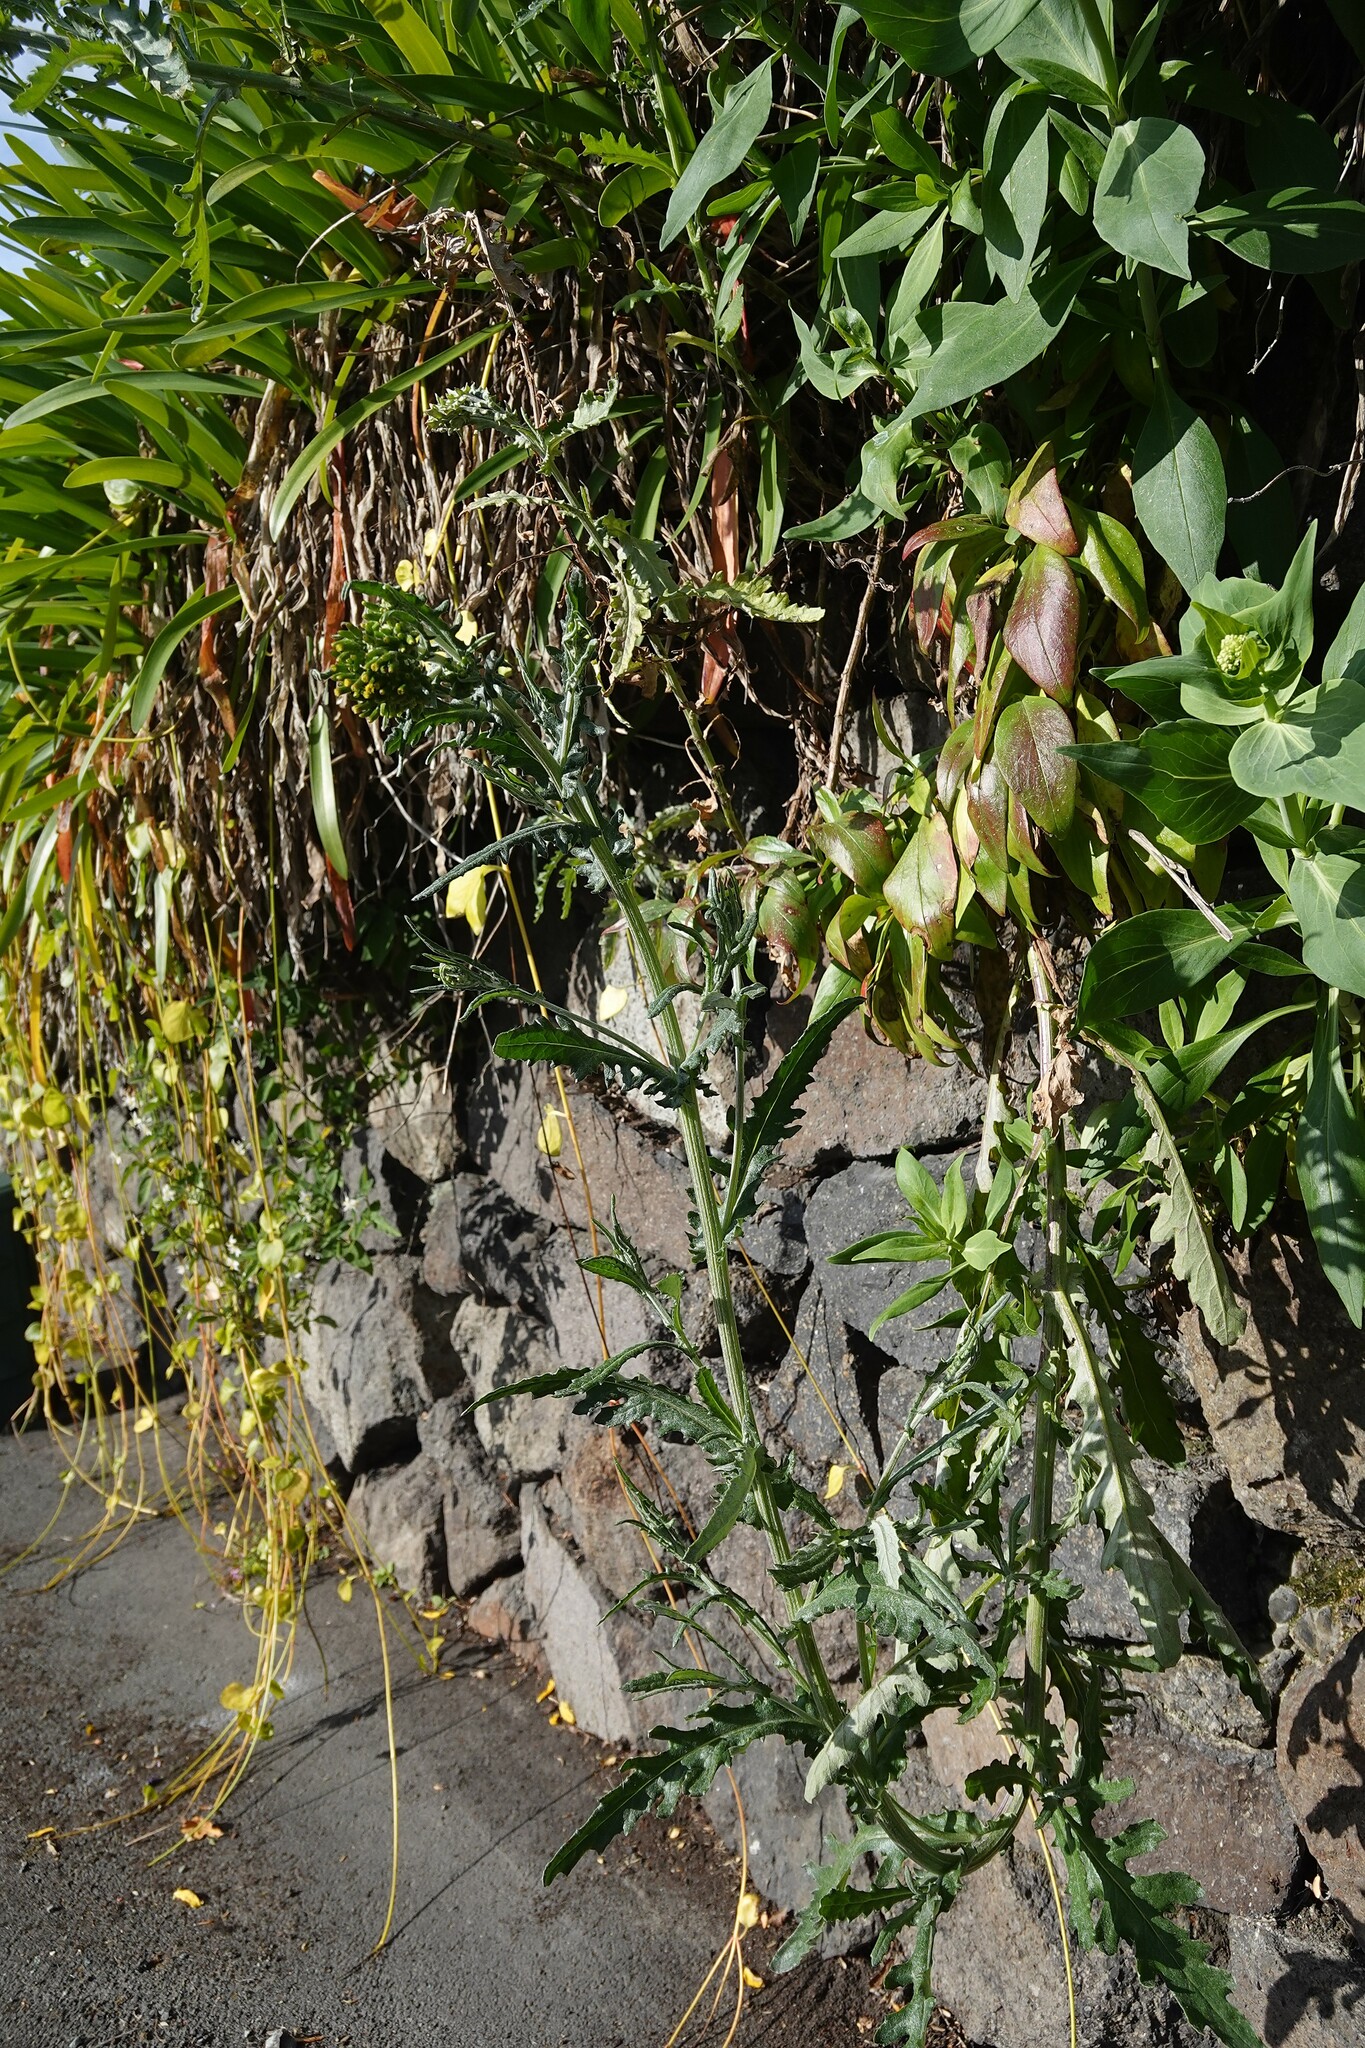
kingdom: Plantae
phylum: Tracheophyta
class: Magnoliopsida
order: Asterales
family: Asteraceae
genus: Senecio
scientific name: Senecio glomeratus
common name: Cutleaf burnweed
